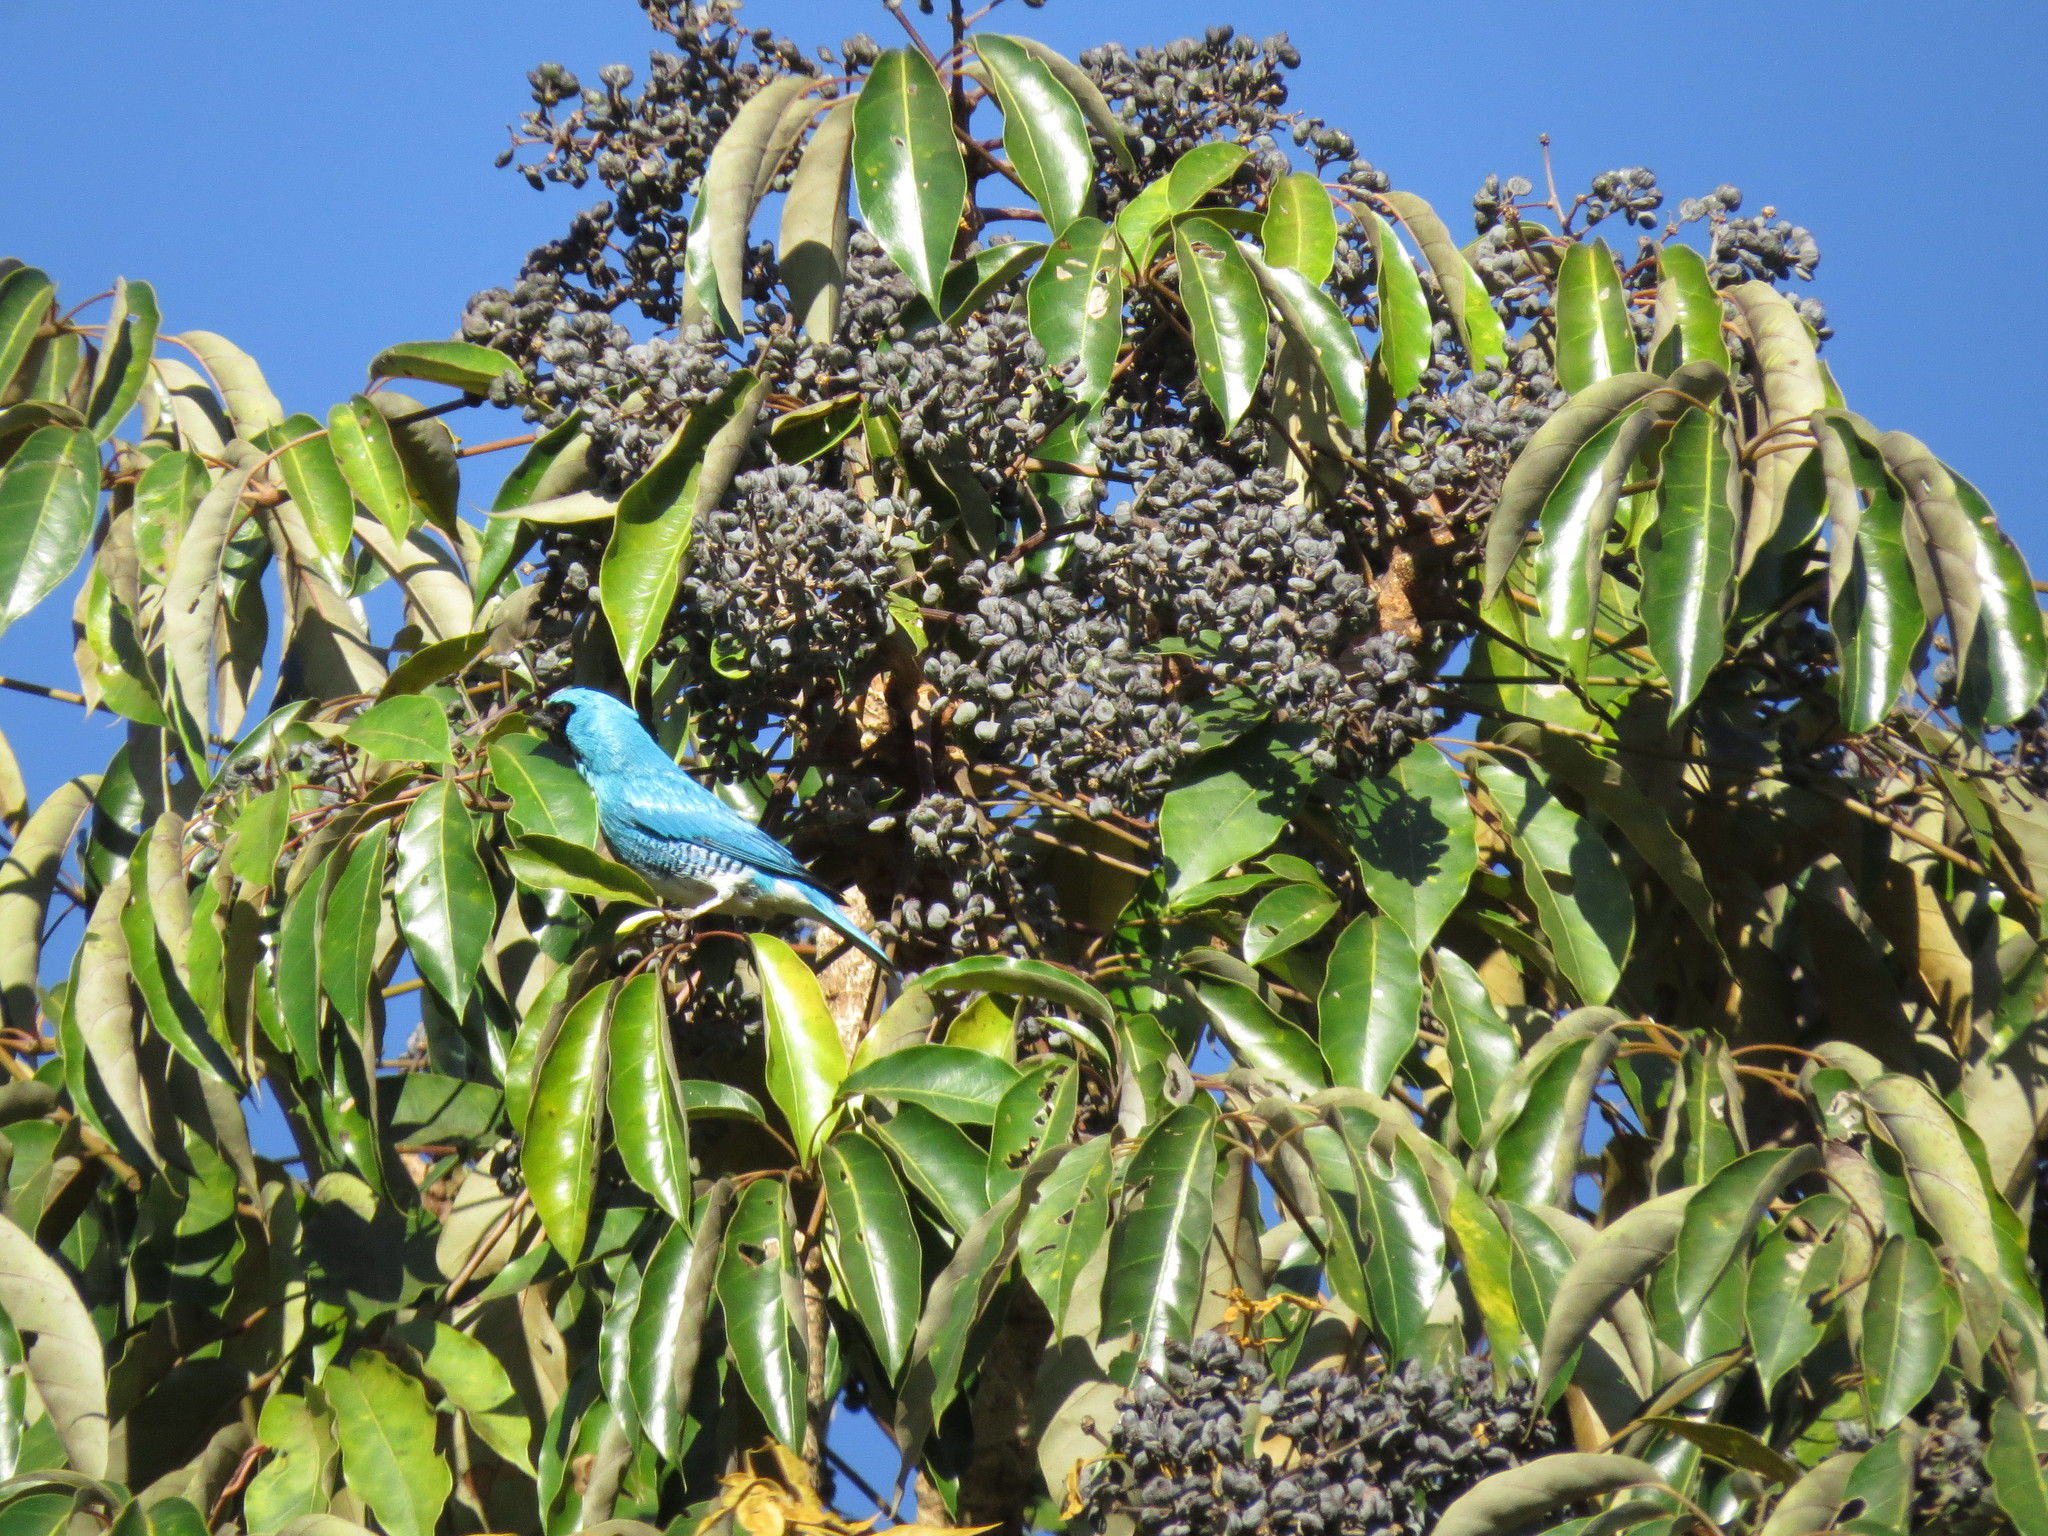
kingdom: Animalia
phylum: Chordata
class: Aves
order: Passeriformes
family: Thraupidae
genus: Tersina
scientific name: Tersina viridis
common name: Swallow tanager
